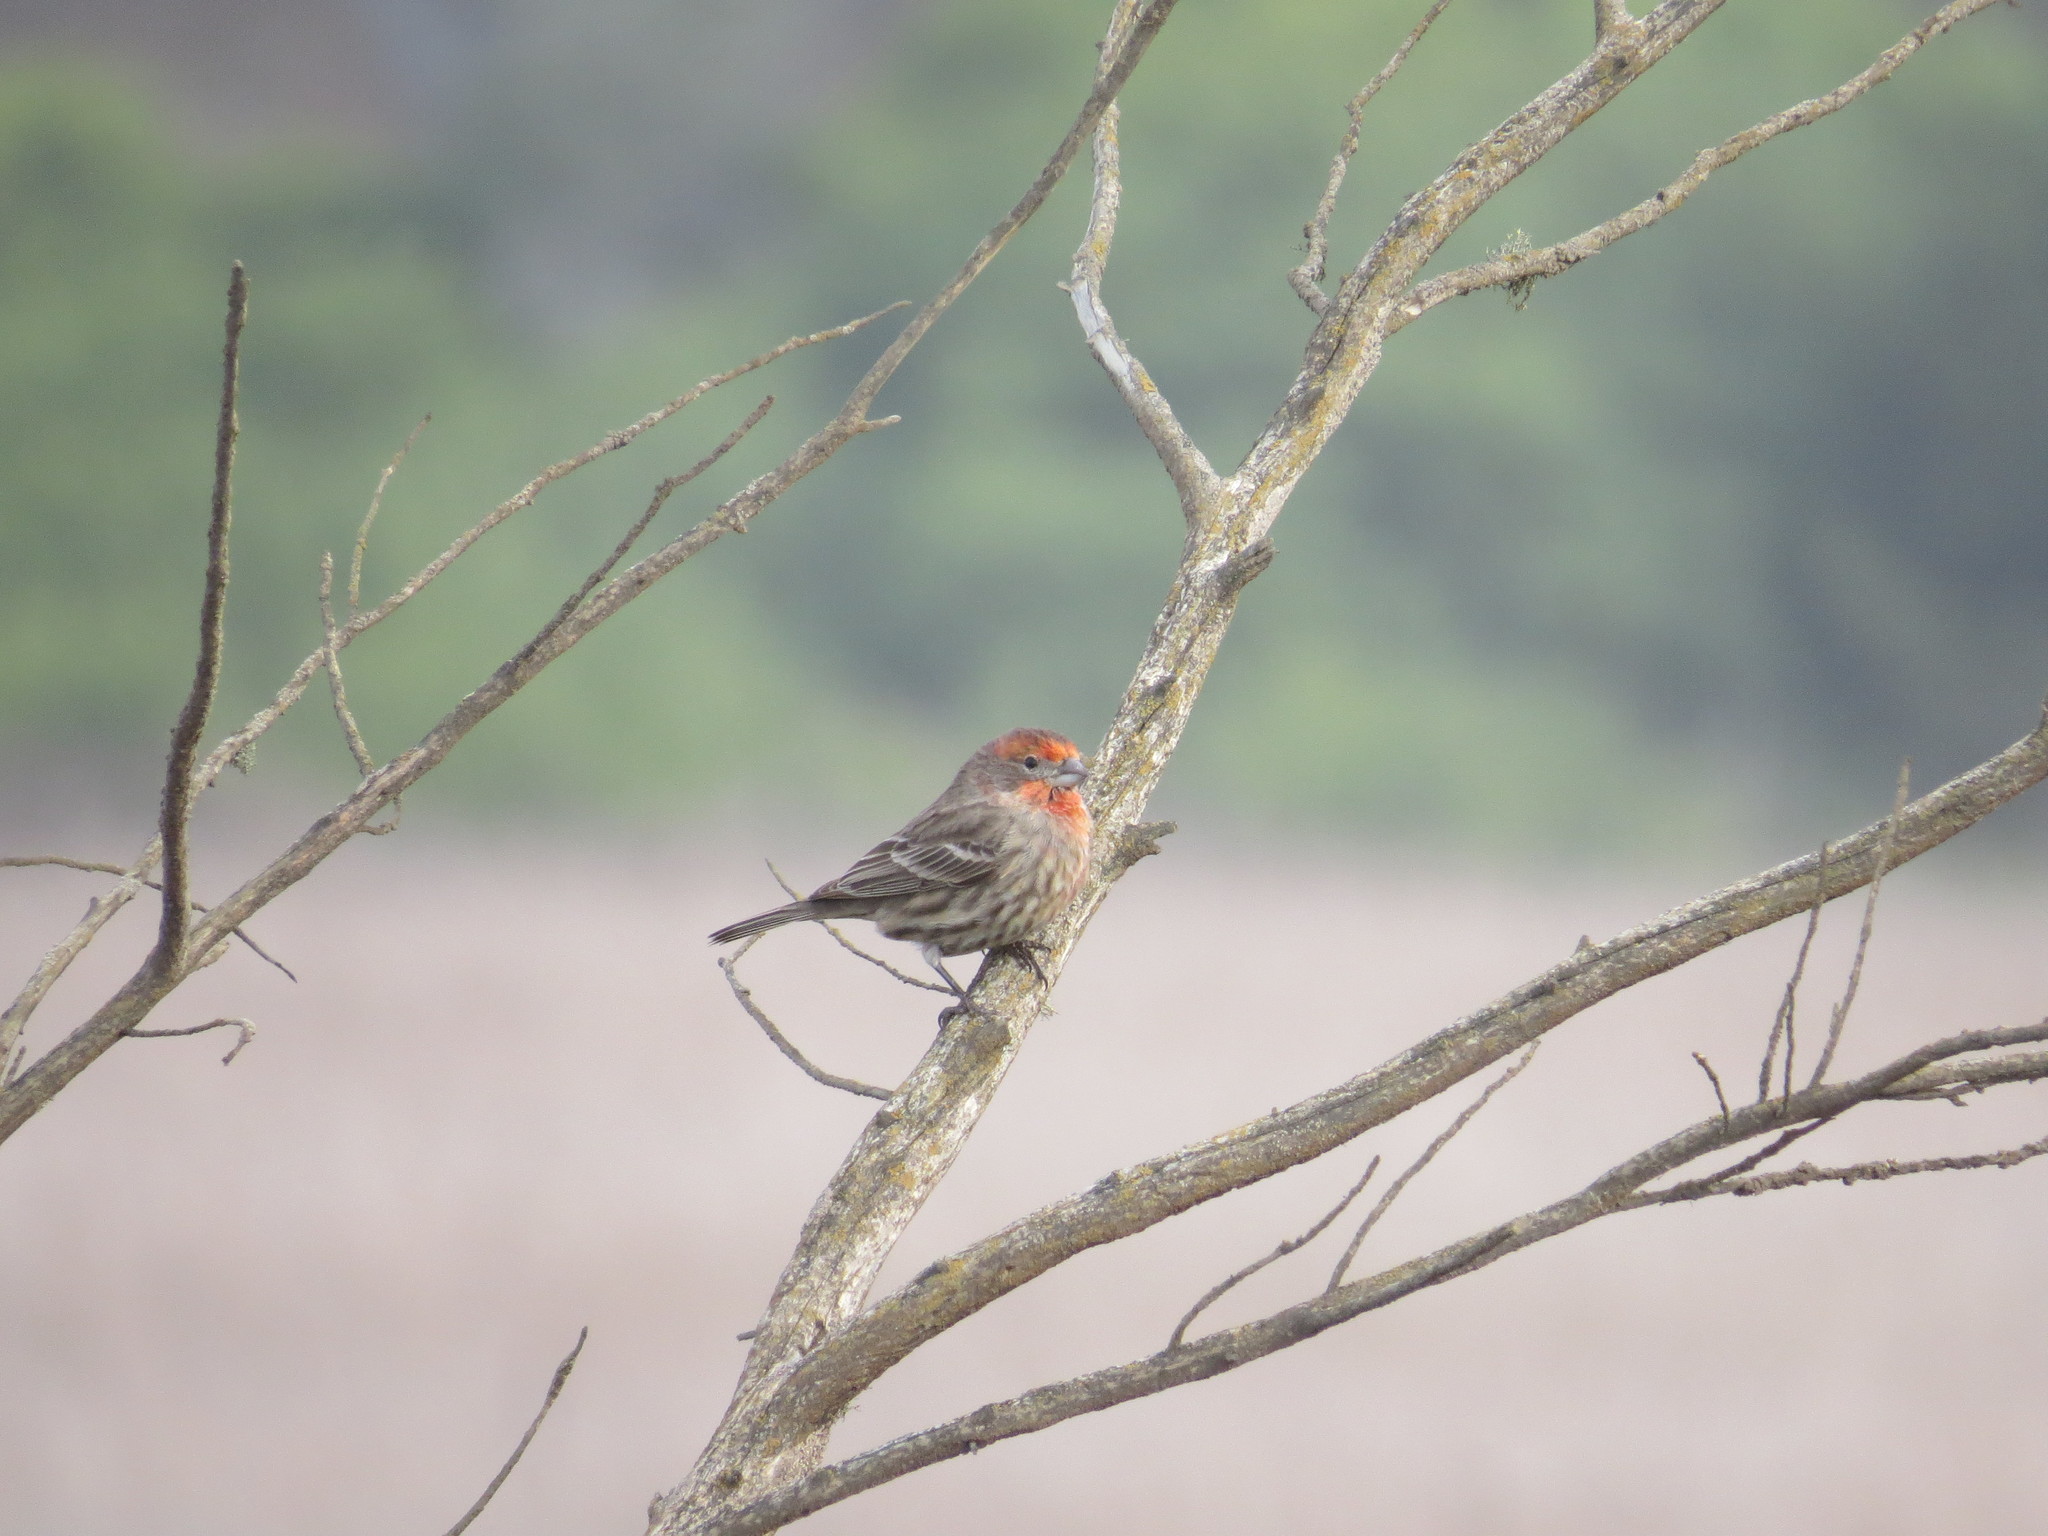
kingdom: Animalia
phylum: Chordata
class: Aves
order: Passeriformes
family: Fringillidae
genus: Haemorhous
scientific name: Haemorhous mexicanus
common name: House finch
